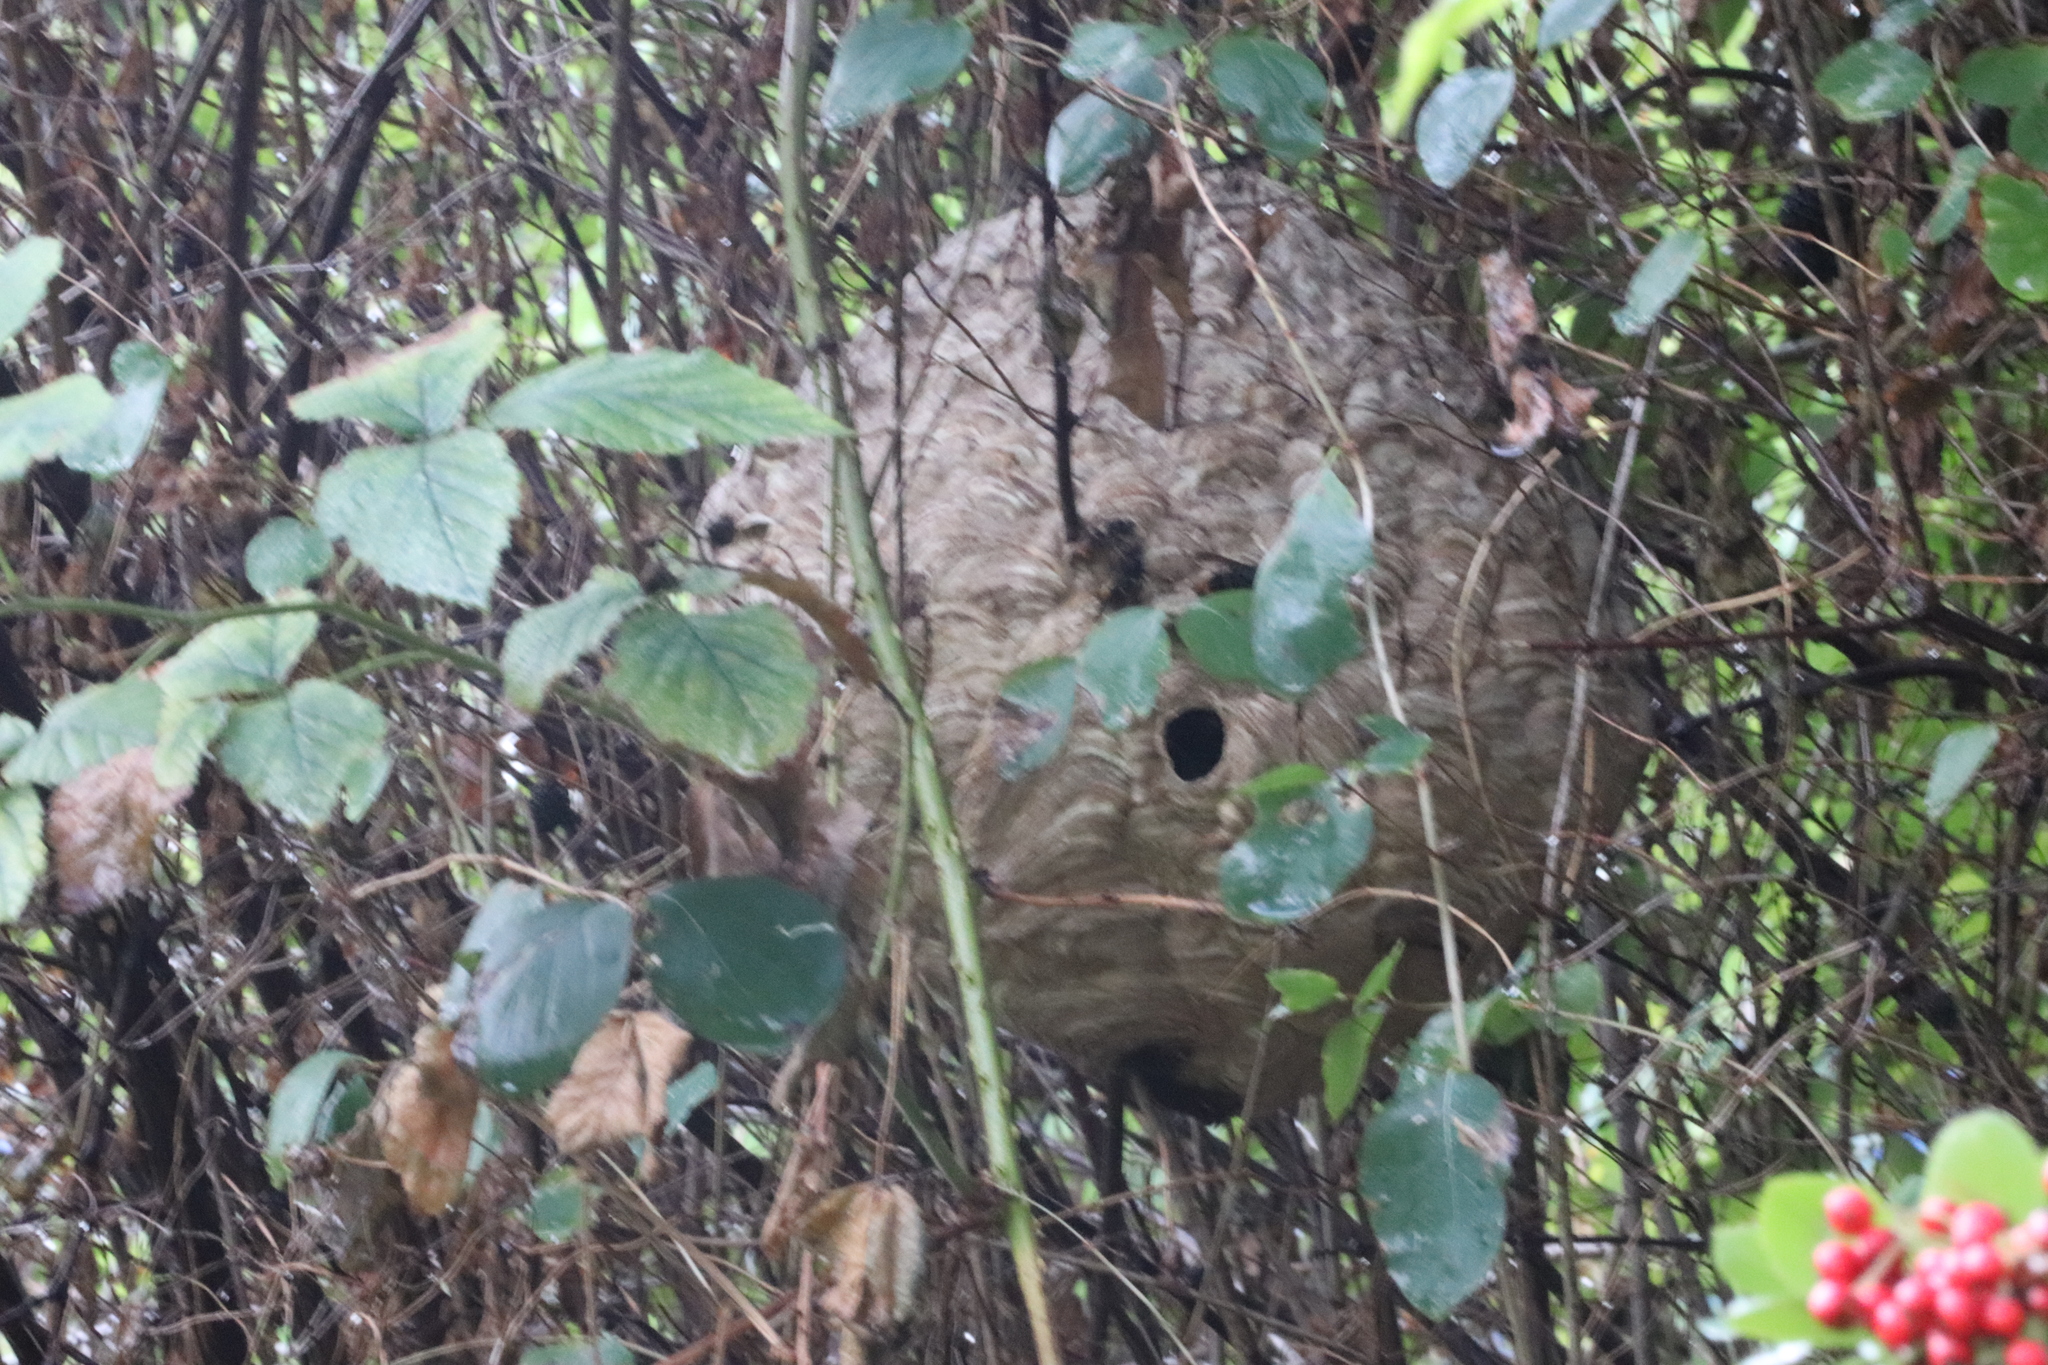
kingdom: Animalia
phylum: Arthropoda
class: Insecta
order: Hymenoptera
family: Vespidae
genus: Vespa
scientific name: Vespa velutina
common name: Asian hornet
